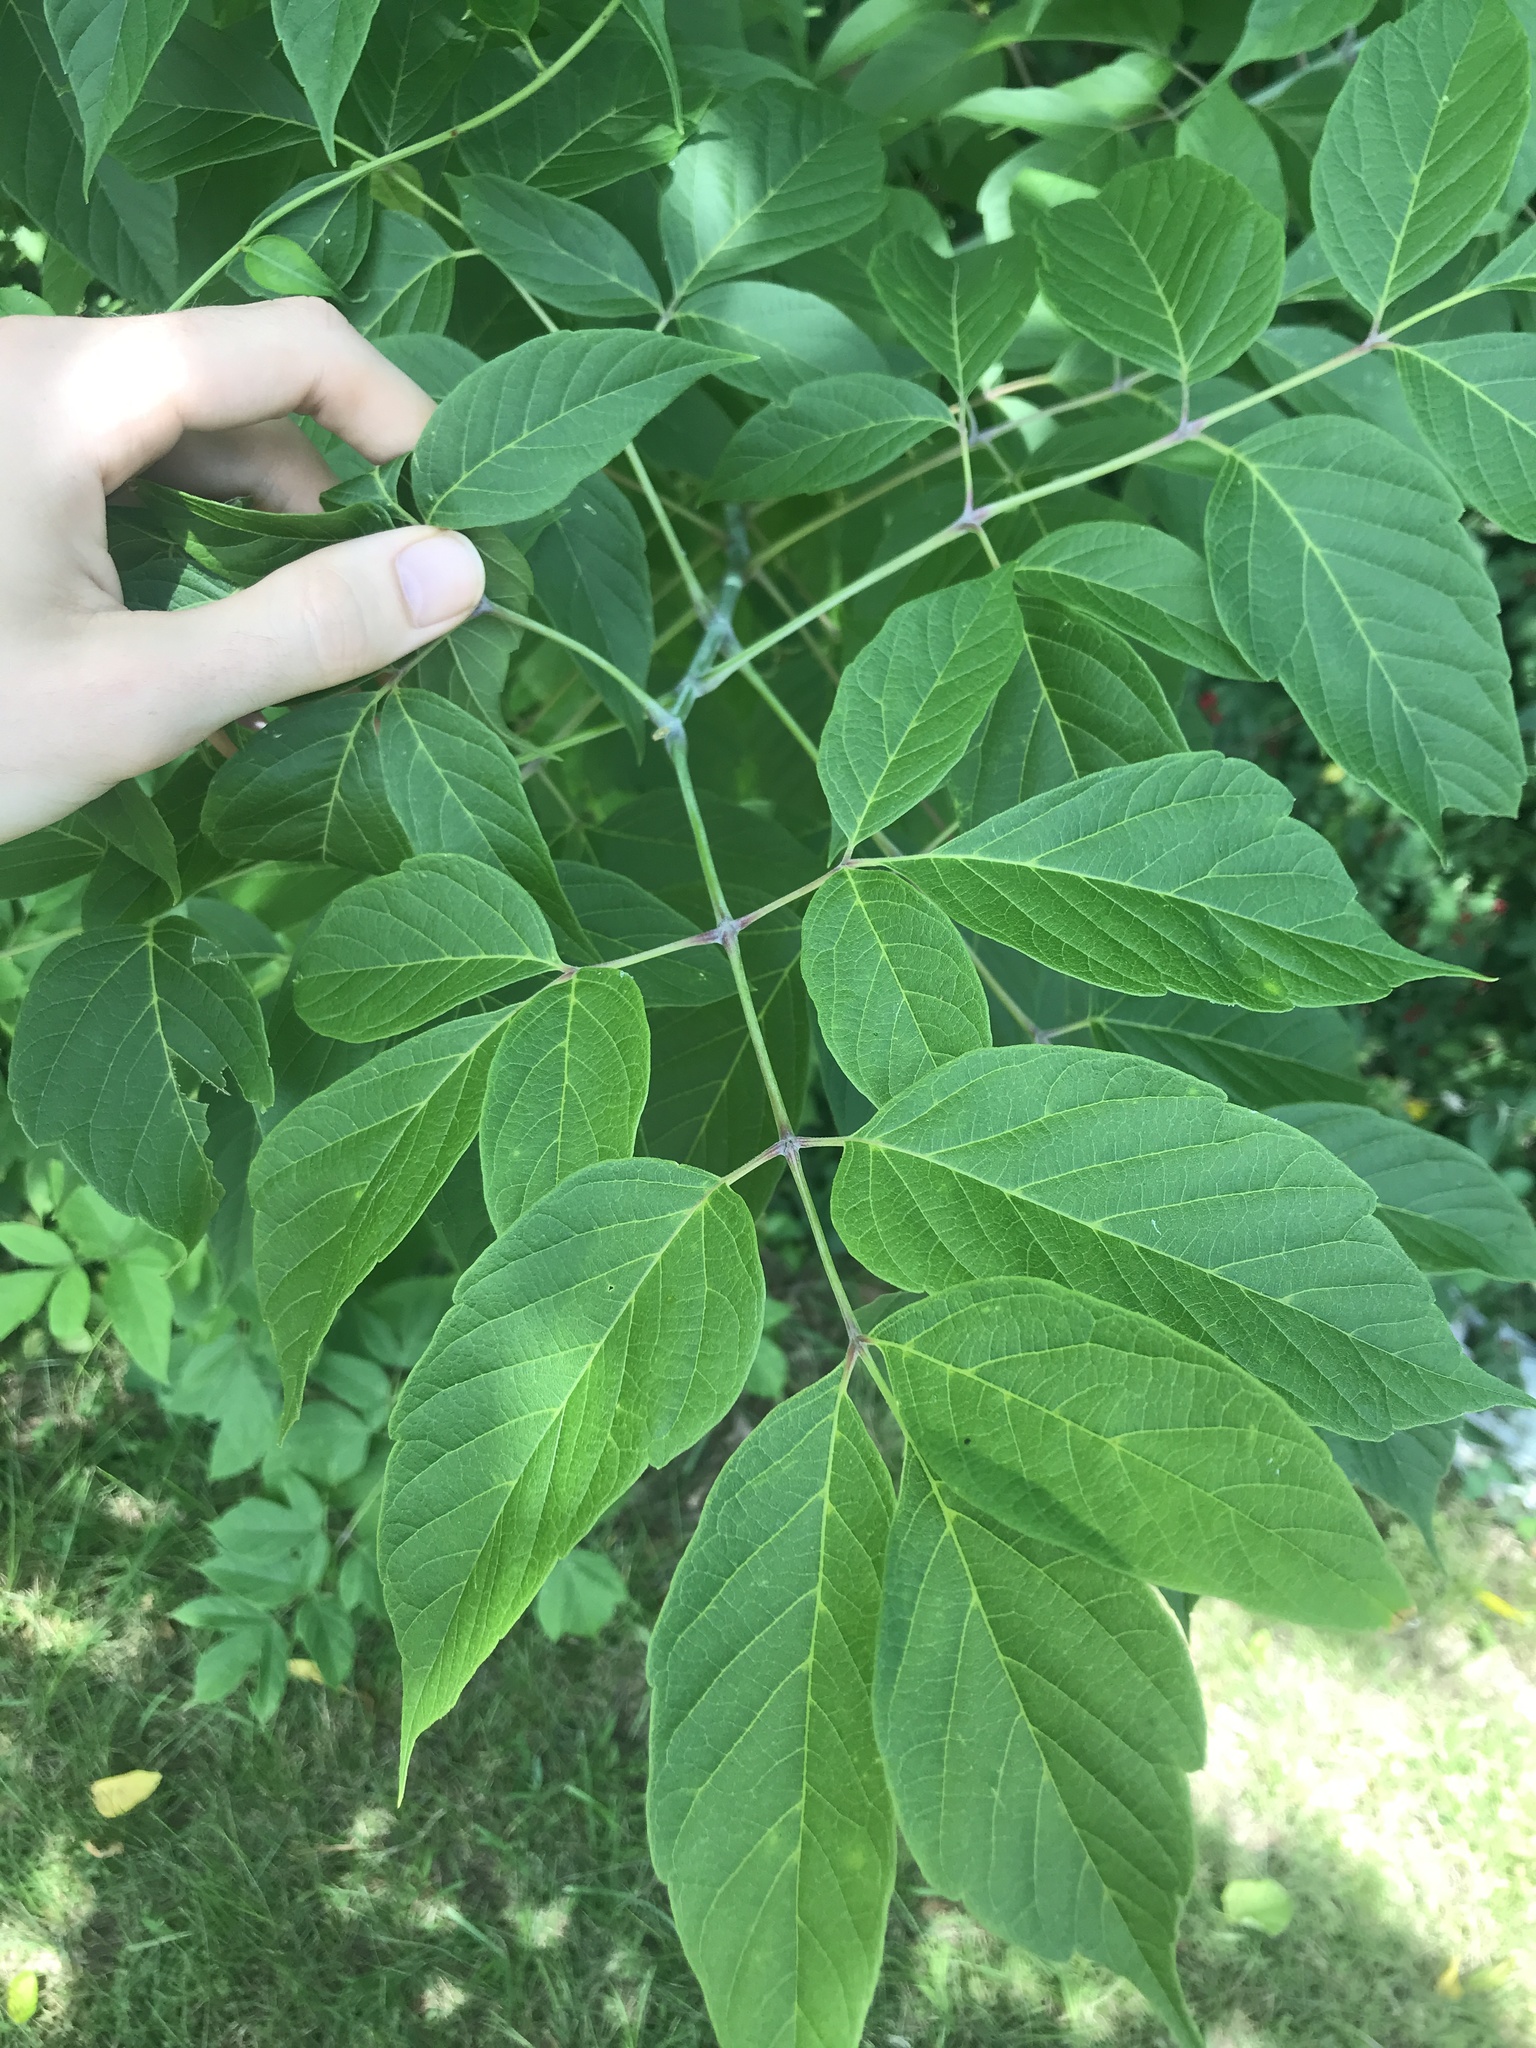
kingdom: Plantae
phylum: Tracheophyta
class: Magnoliopsida
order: Sapindales
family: Sapindaceae
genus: Acer
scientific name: Acer negundo
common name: Ashleaf maple
